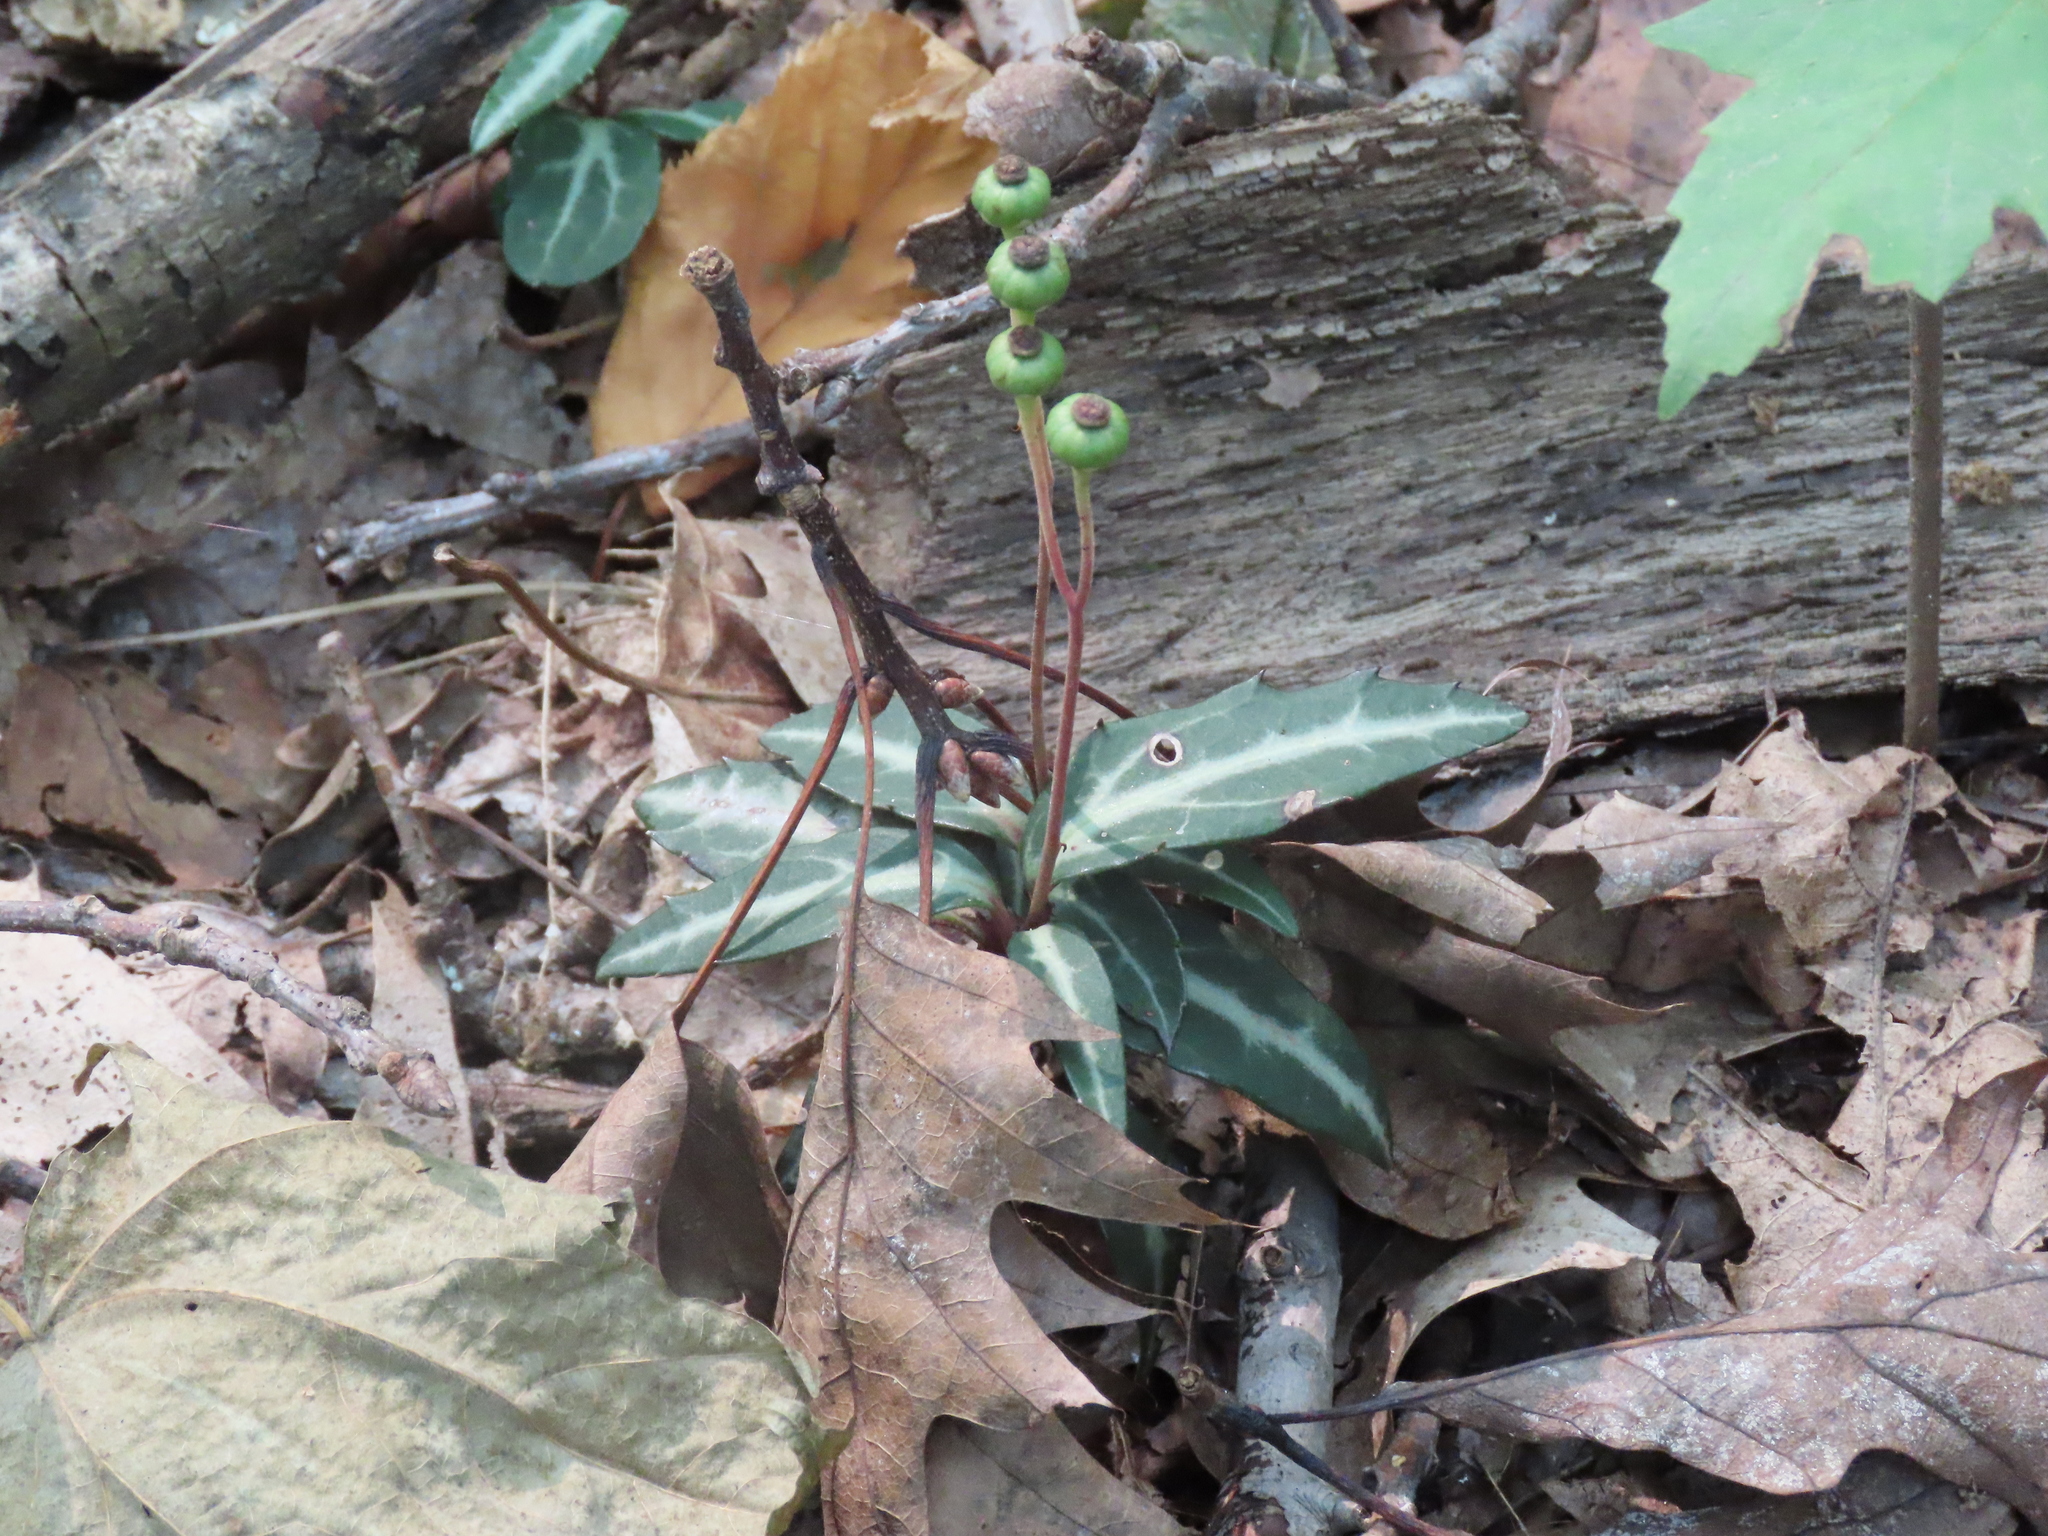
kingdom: Plantae
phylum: Tracheophyta
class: Magnoliopsida
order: Ericales
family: Ericaceae
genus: Chimaphila
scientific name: Chimaphila maculata
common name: Spotted pipsissewa
